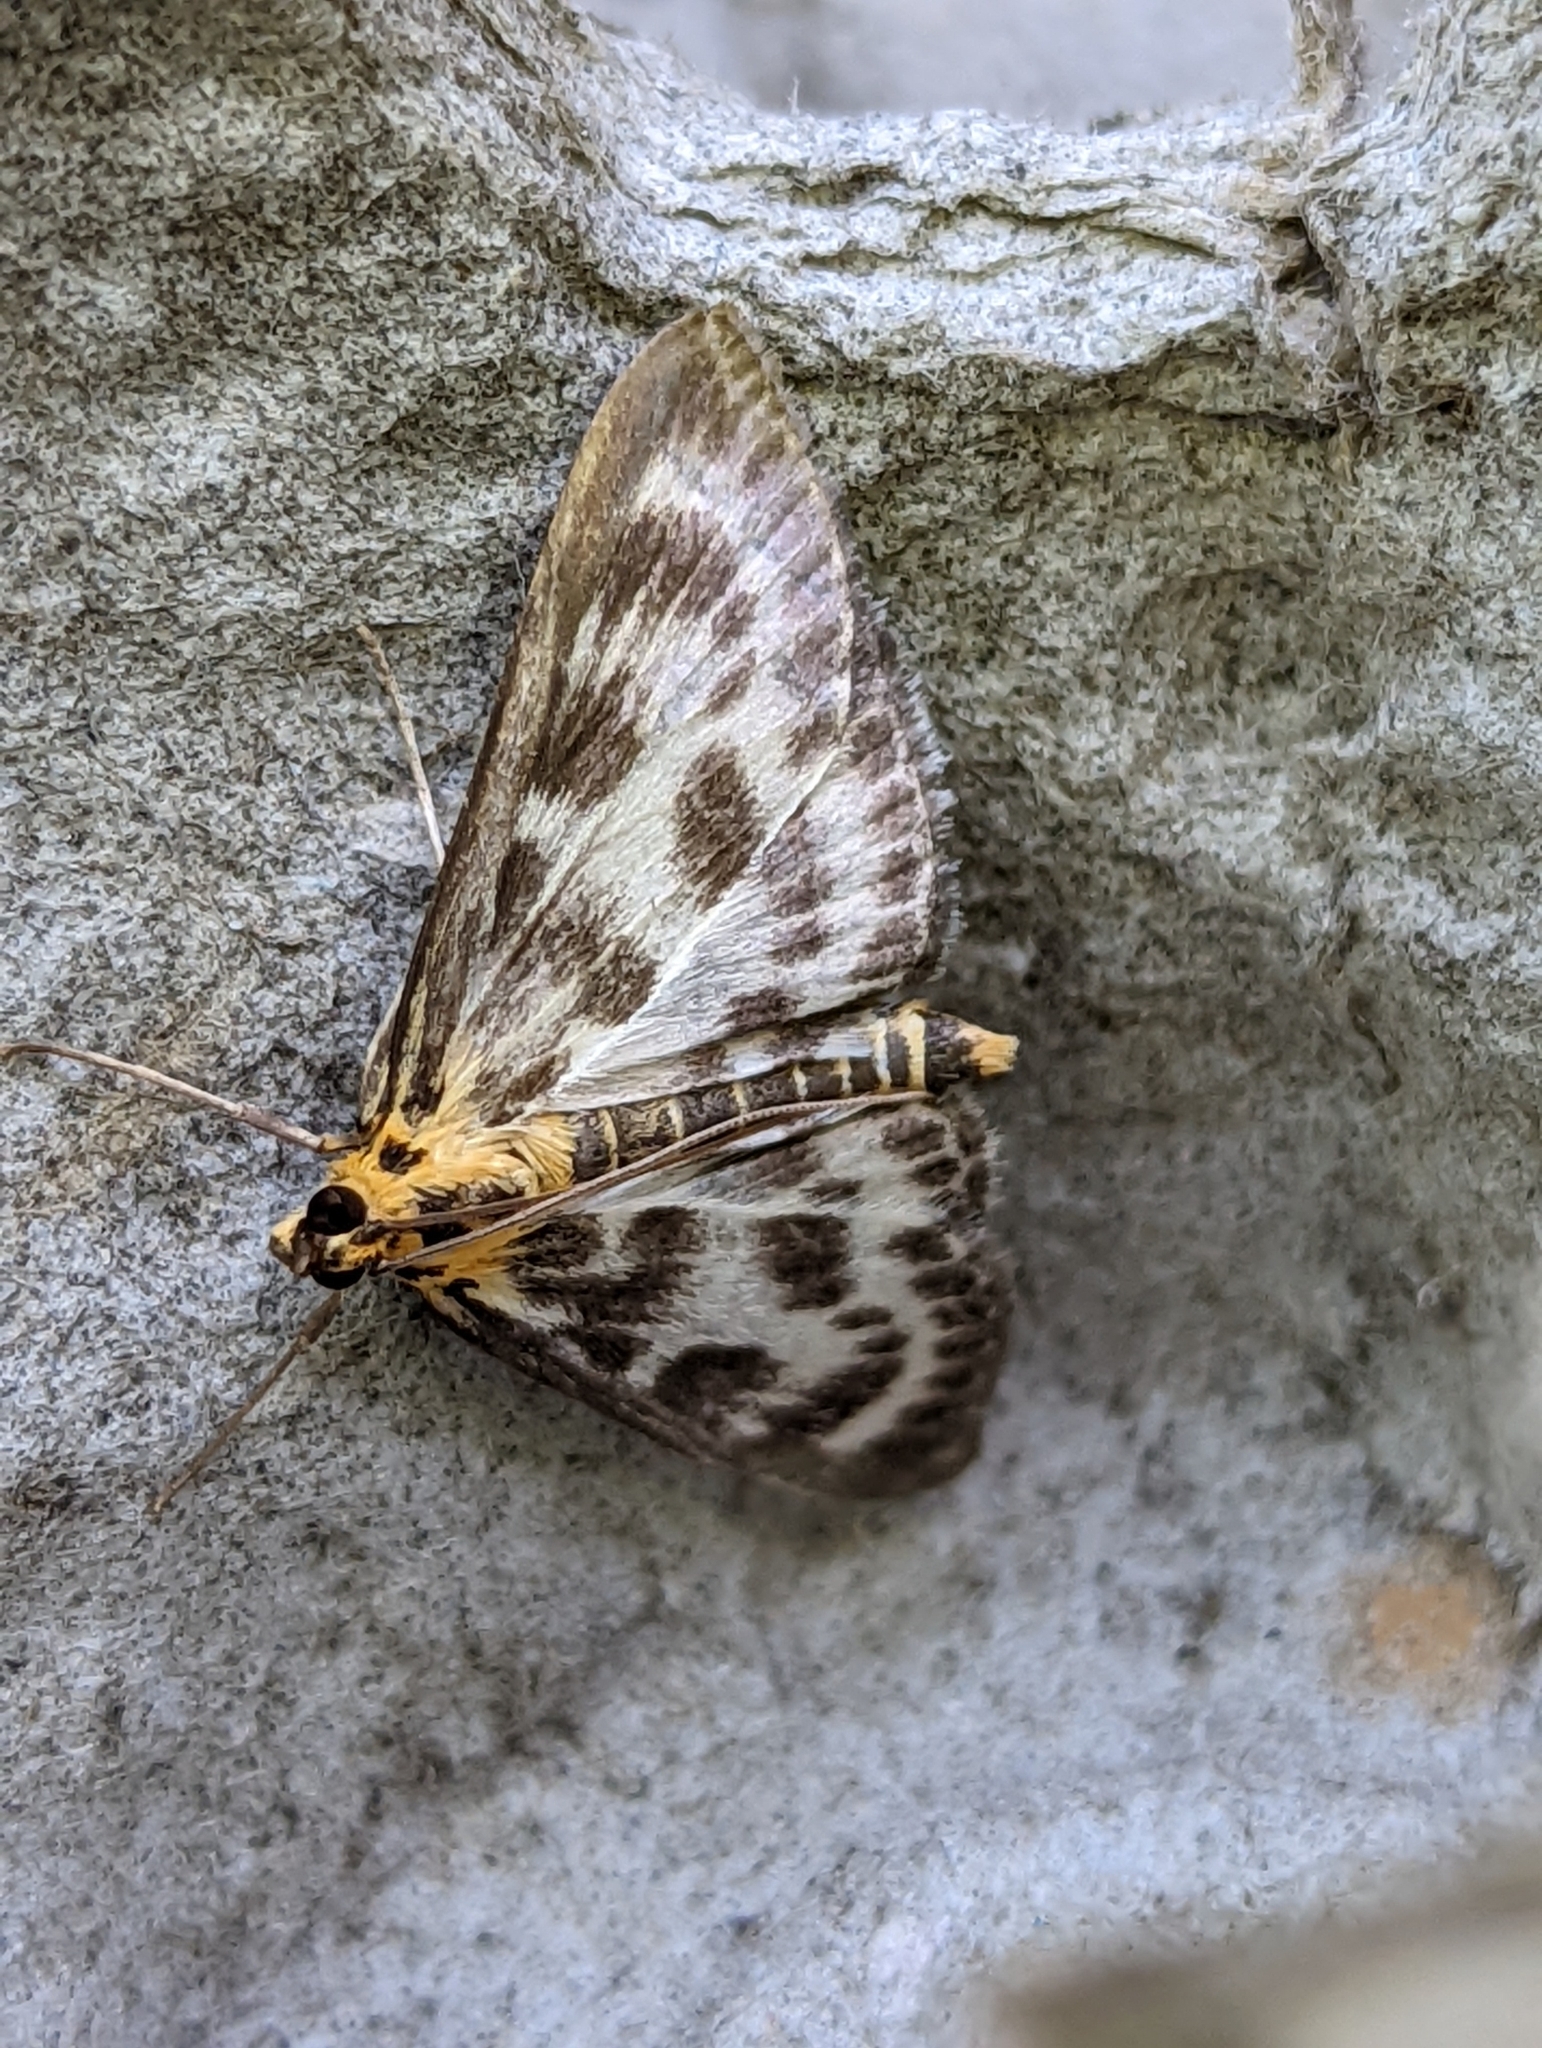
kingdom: Animalia
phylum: Arthropoda
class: Insecta
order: Lepidoptera
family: Crambidae
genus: Anania
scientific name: Anania hortulata
